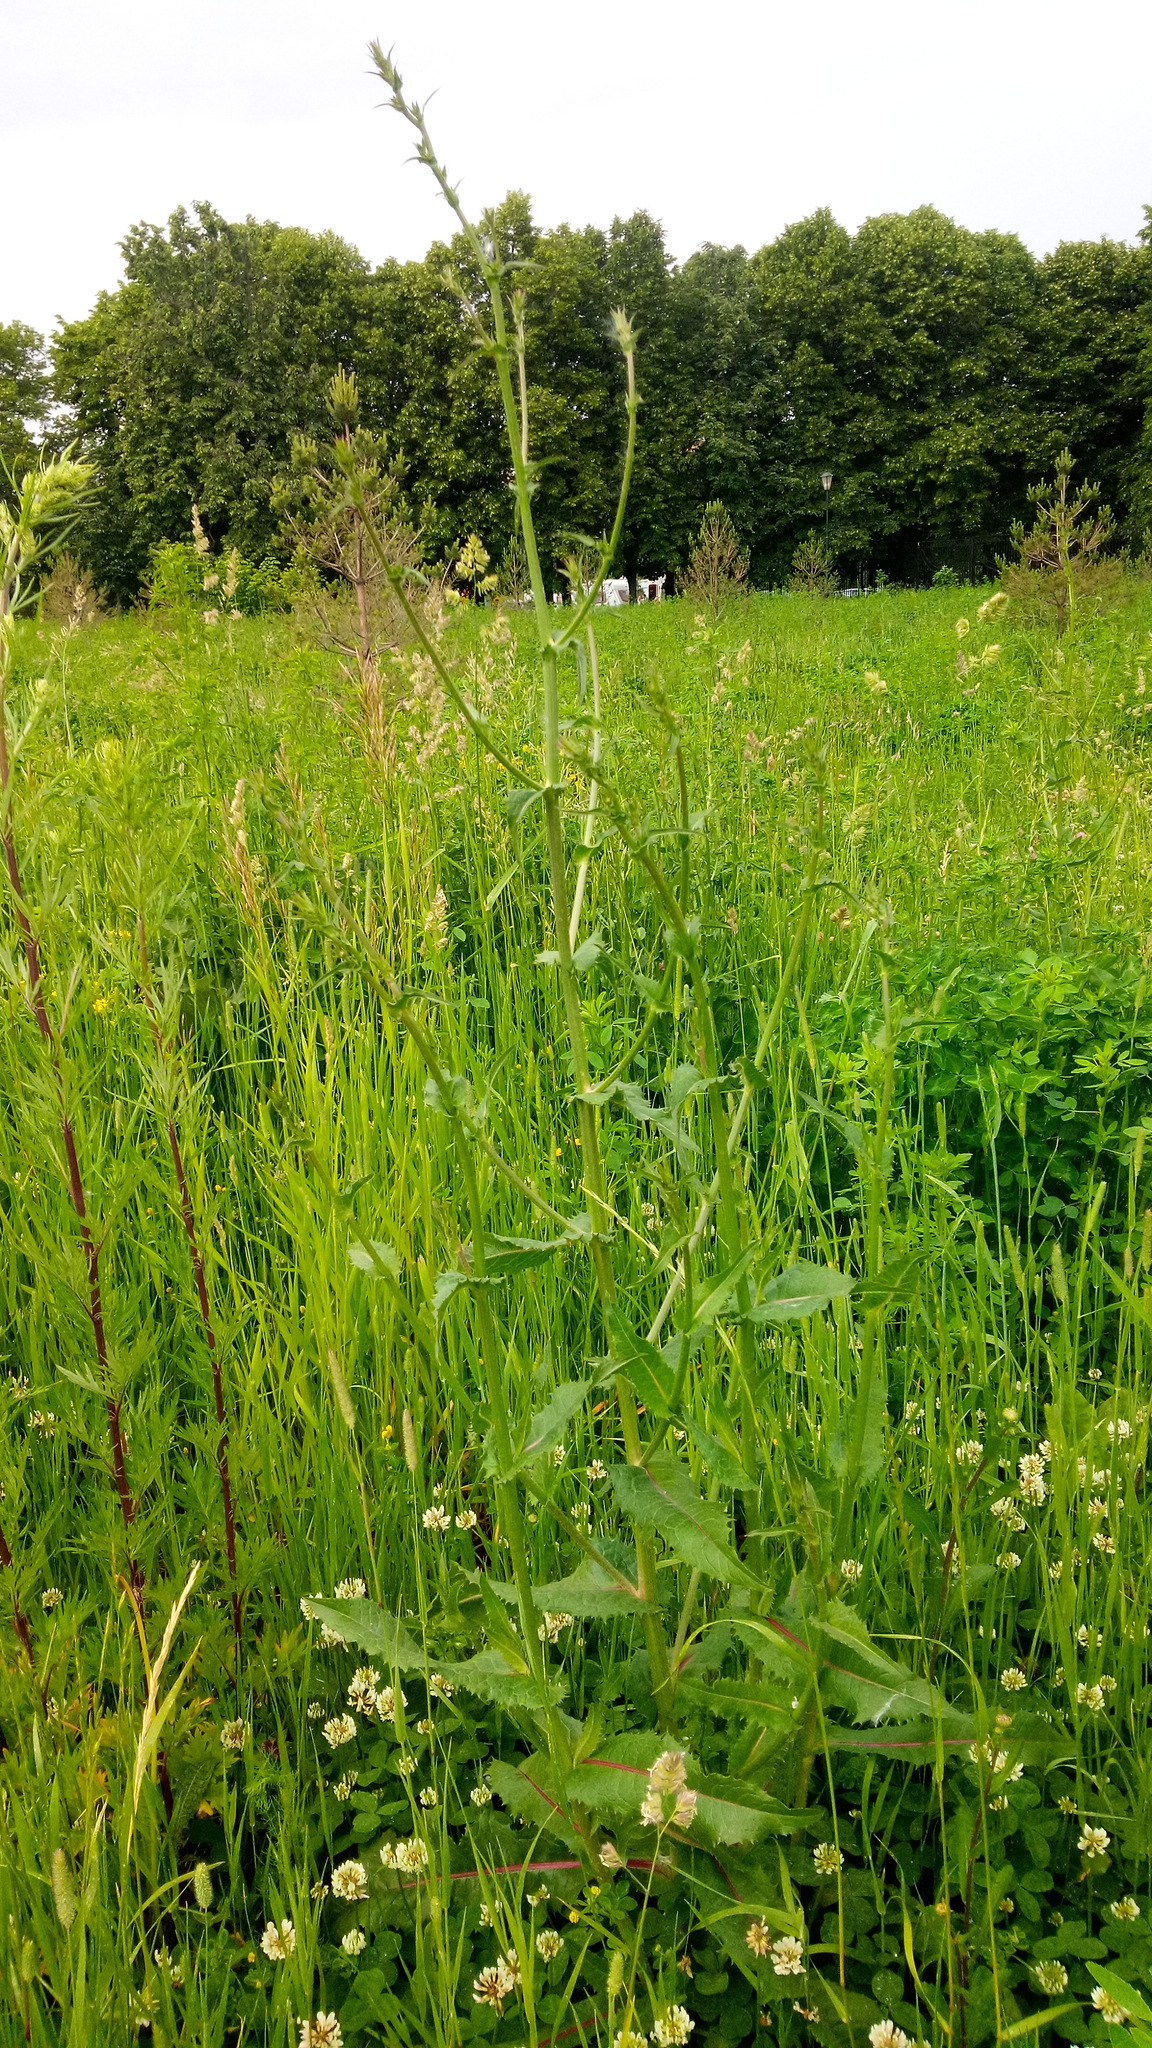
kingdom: Plantae
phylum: Tracheophyta
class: Magnoliopsida
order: Asterales
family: Asteraceae
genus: Cichorium
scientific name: Cichorium intybus
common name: Chicory
